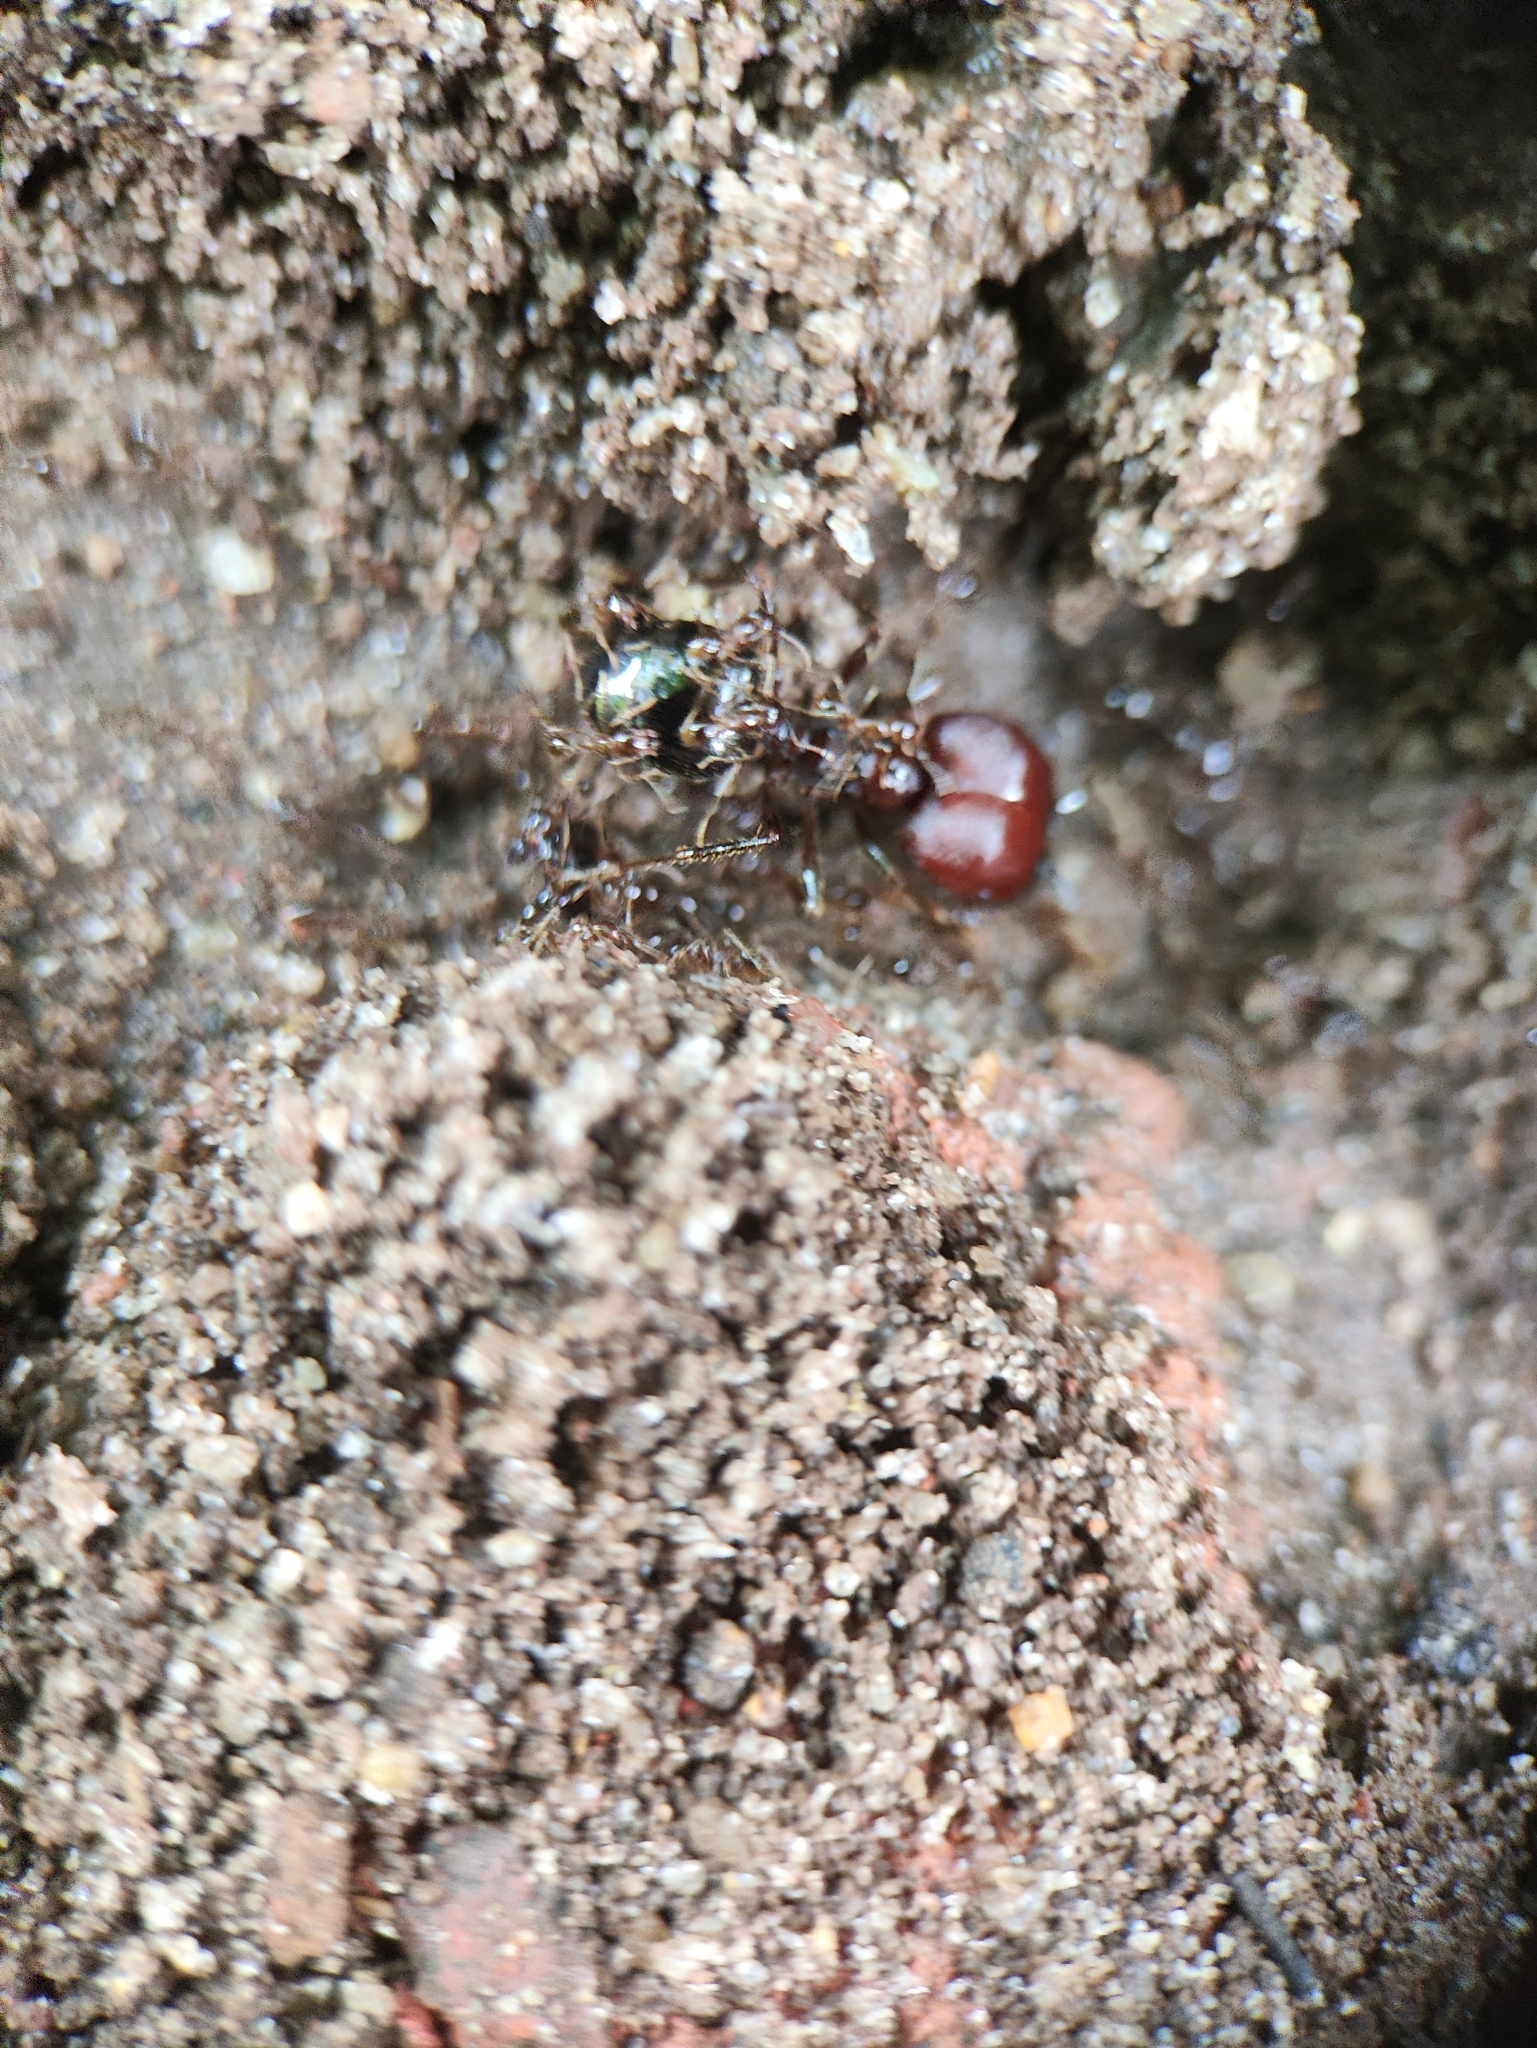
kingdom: Animalia
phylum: Arthropoda
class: Insecta
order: Hymenoptera
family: Formicidae
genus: Pheidologeton
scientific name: Pheidologeton diversus
